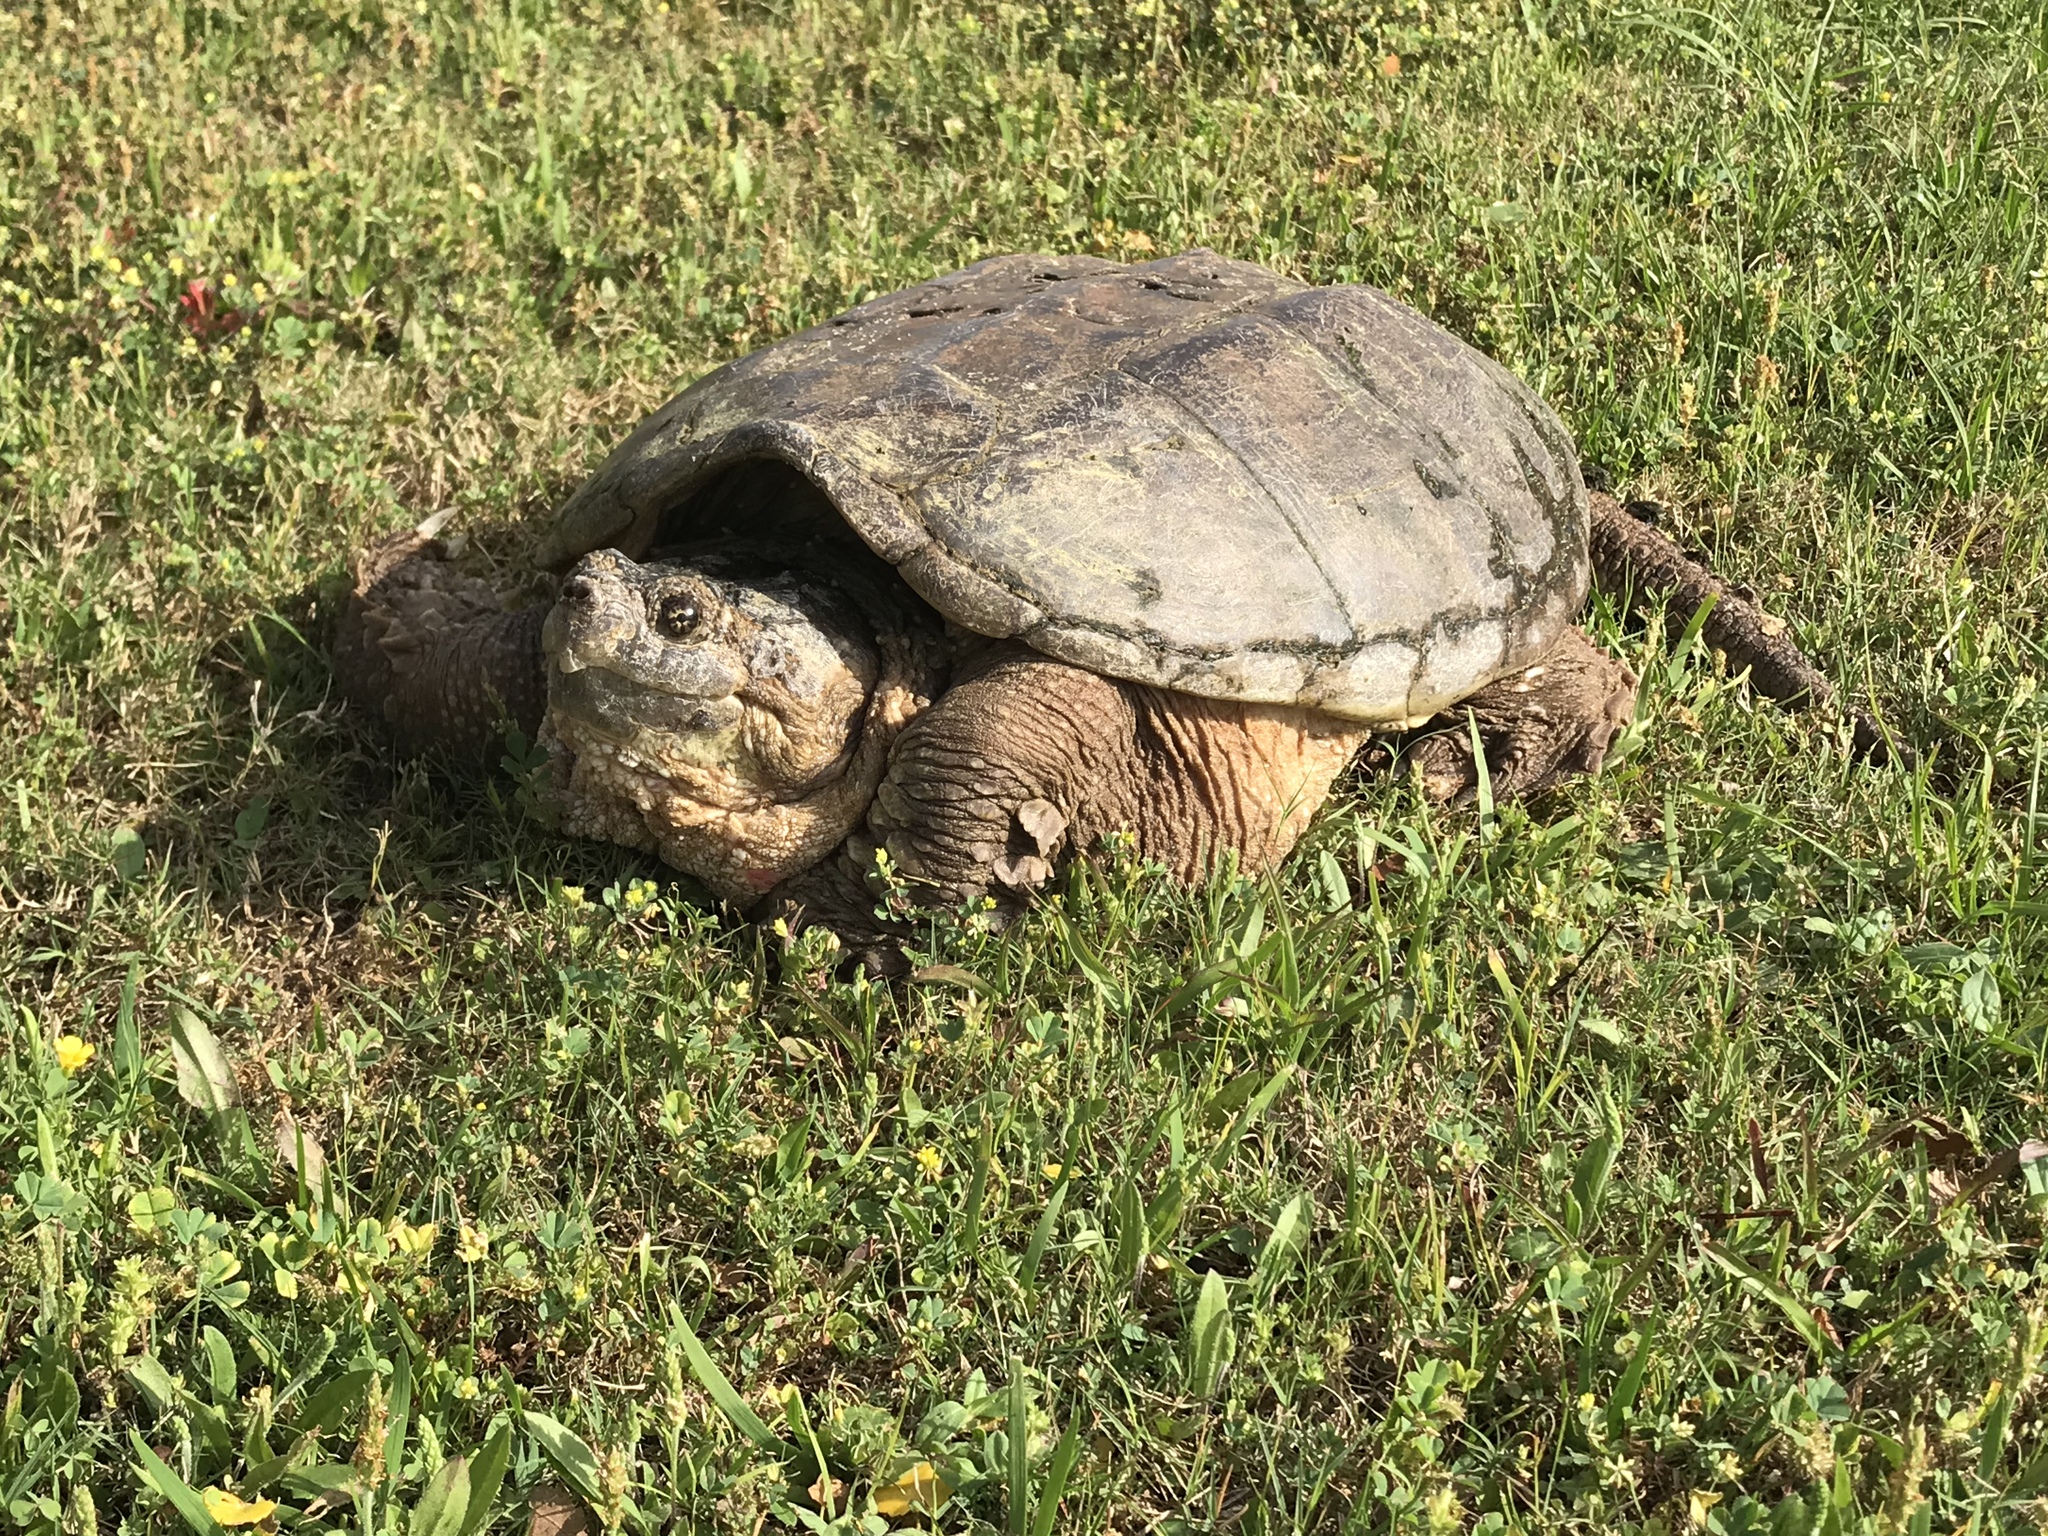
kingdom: Animalia
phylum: Chordata
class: Testudines
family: Chelydridae
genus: Chelydra
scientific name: Chelydra serpentina
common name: Common snapping turtle
